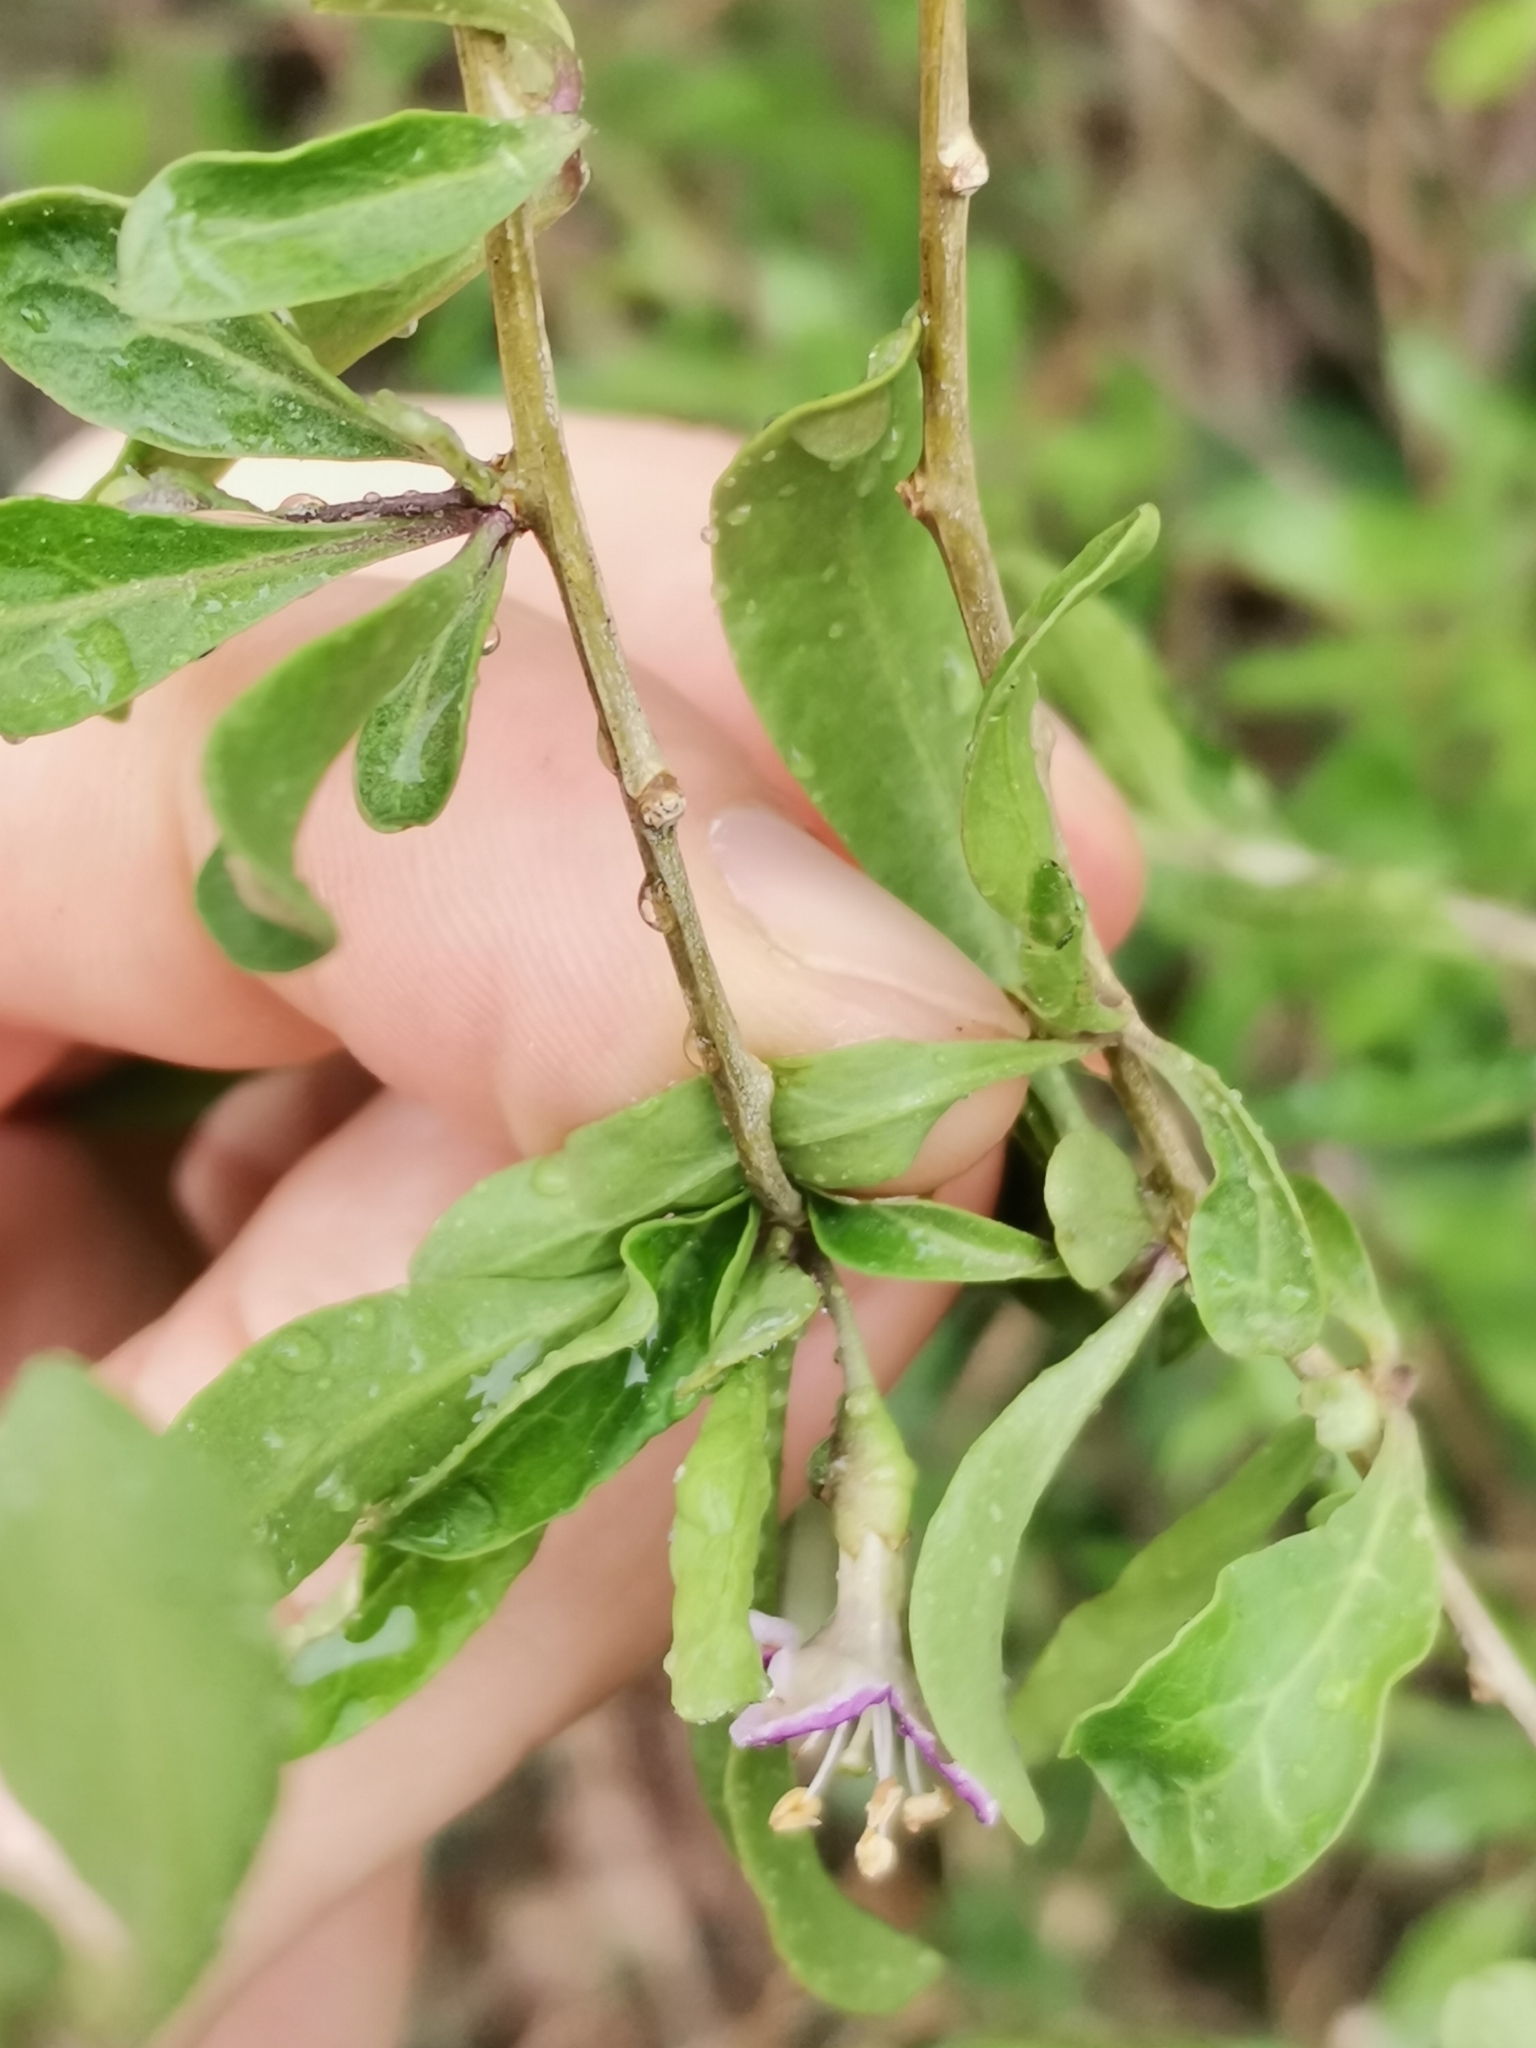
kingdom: Plantae
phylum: Tracheophyta
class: Magnoliopsida
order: Solanales
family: Solanaceae
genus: Lycium
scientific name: Lycium barbarum
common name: Duke of argyll's teaplant
